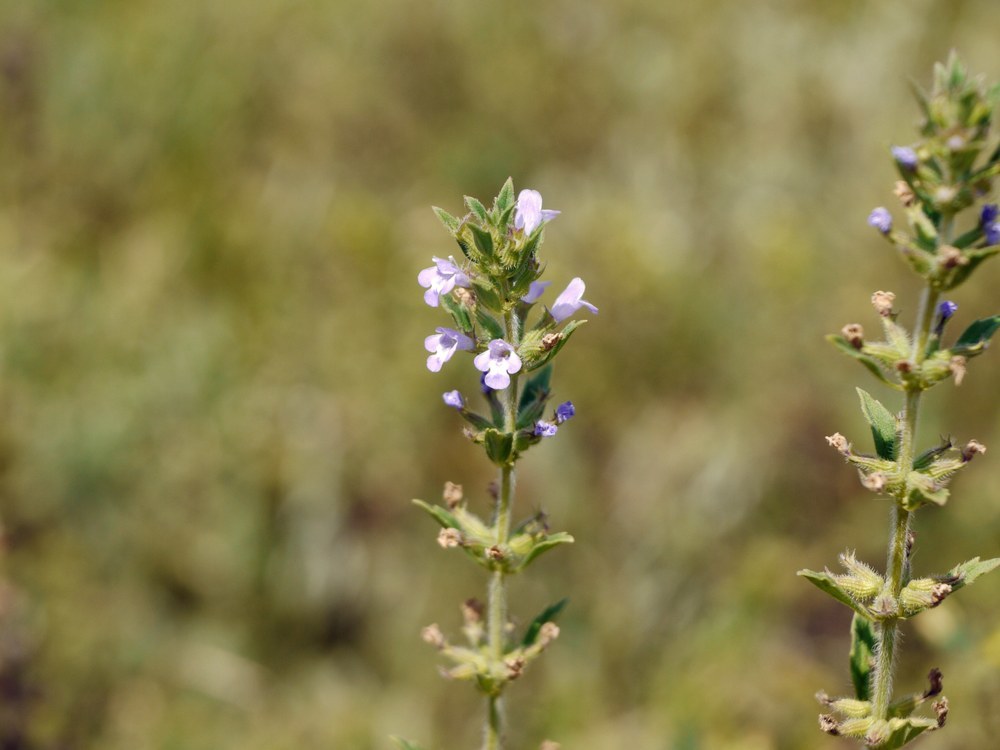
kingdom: Plantae
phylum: Tracheophyta
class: Magnoliopsida
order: Lamiales
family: Lamiaceae
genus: Clinopodium
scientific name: Clinopodium acinos
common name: Basil thyme
